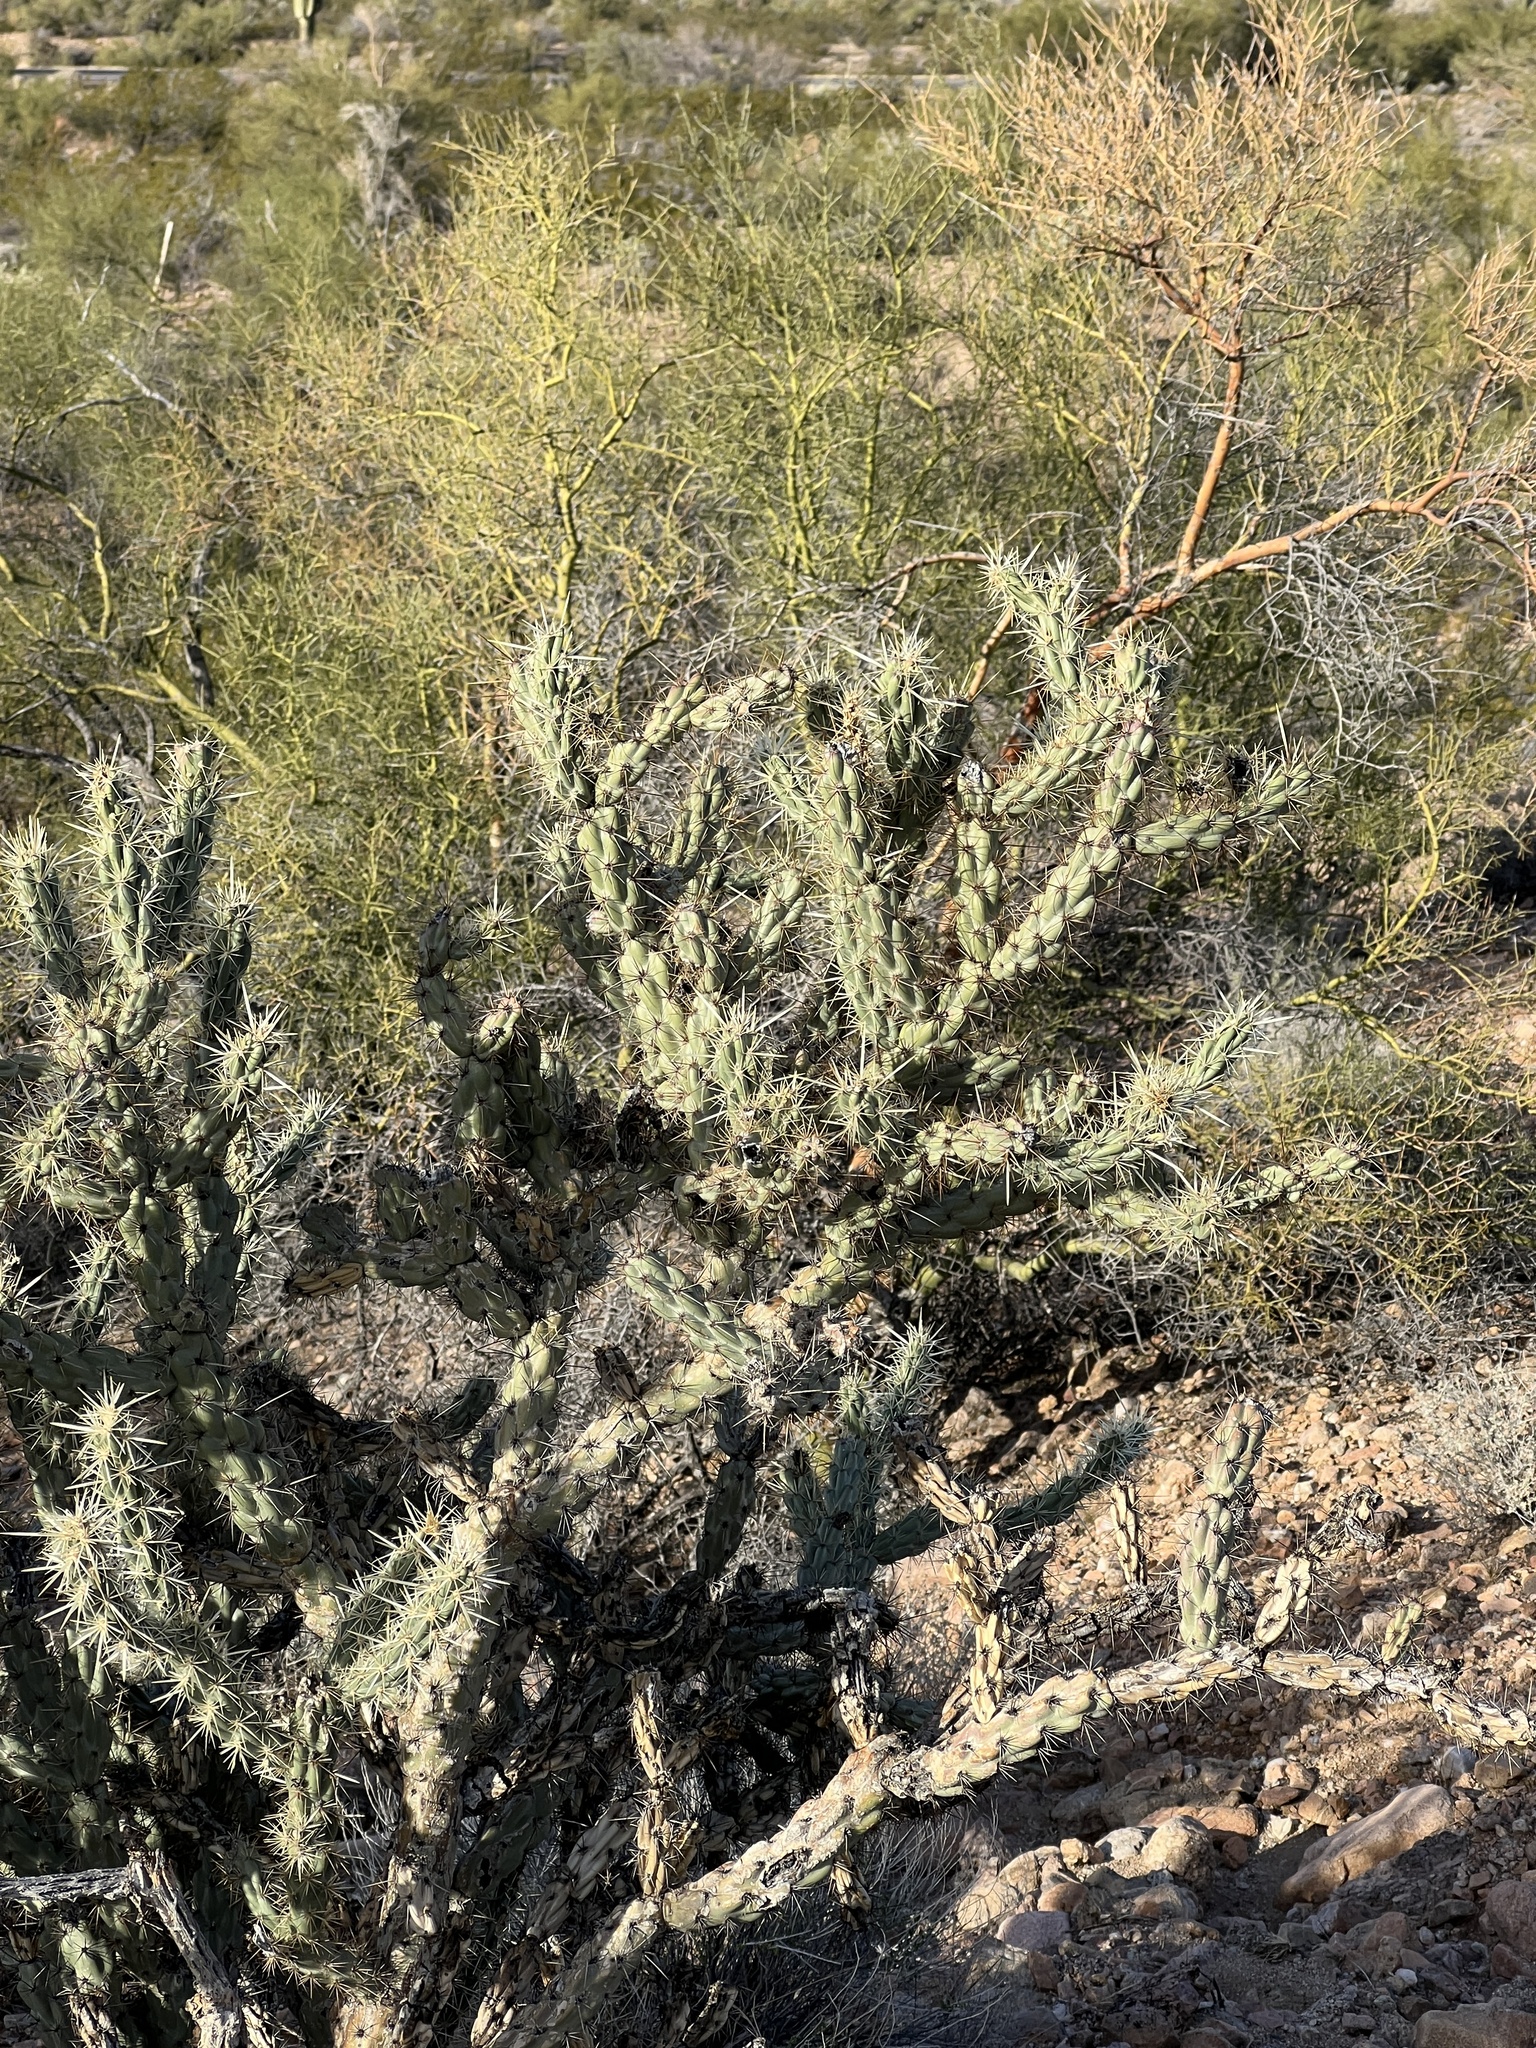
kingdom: Plantae
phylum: Tracheophyta
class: Magnoliopsida
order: Caryophyllales
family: Cactaceae
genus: Cylindropuntia
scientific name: Cylindropuntia acanthocarpa
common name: Buckhorn cholla
